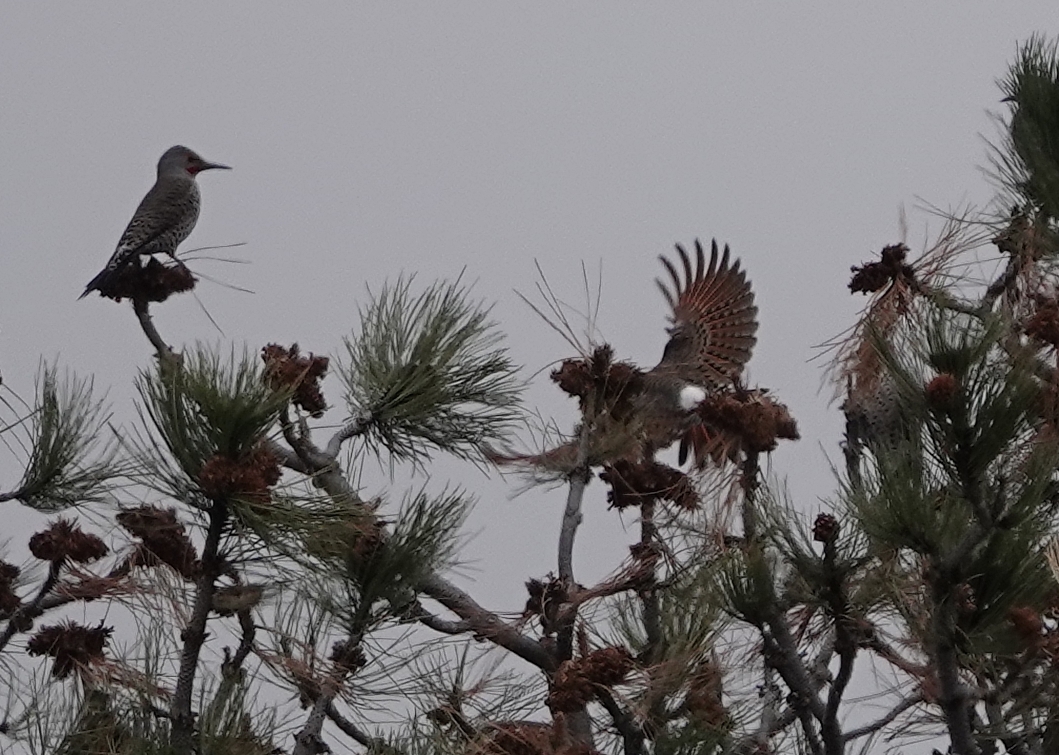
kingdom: Animalia
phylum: Chordata
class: Aves
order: Piciformes
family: Picidae
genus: Colaptes
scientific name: Colaptes auratus
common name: Northern flicker
